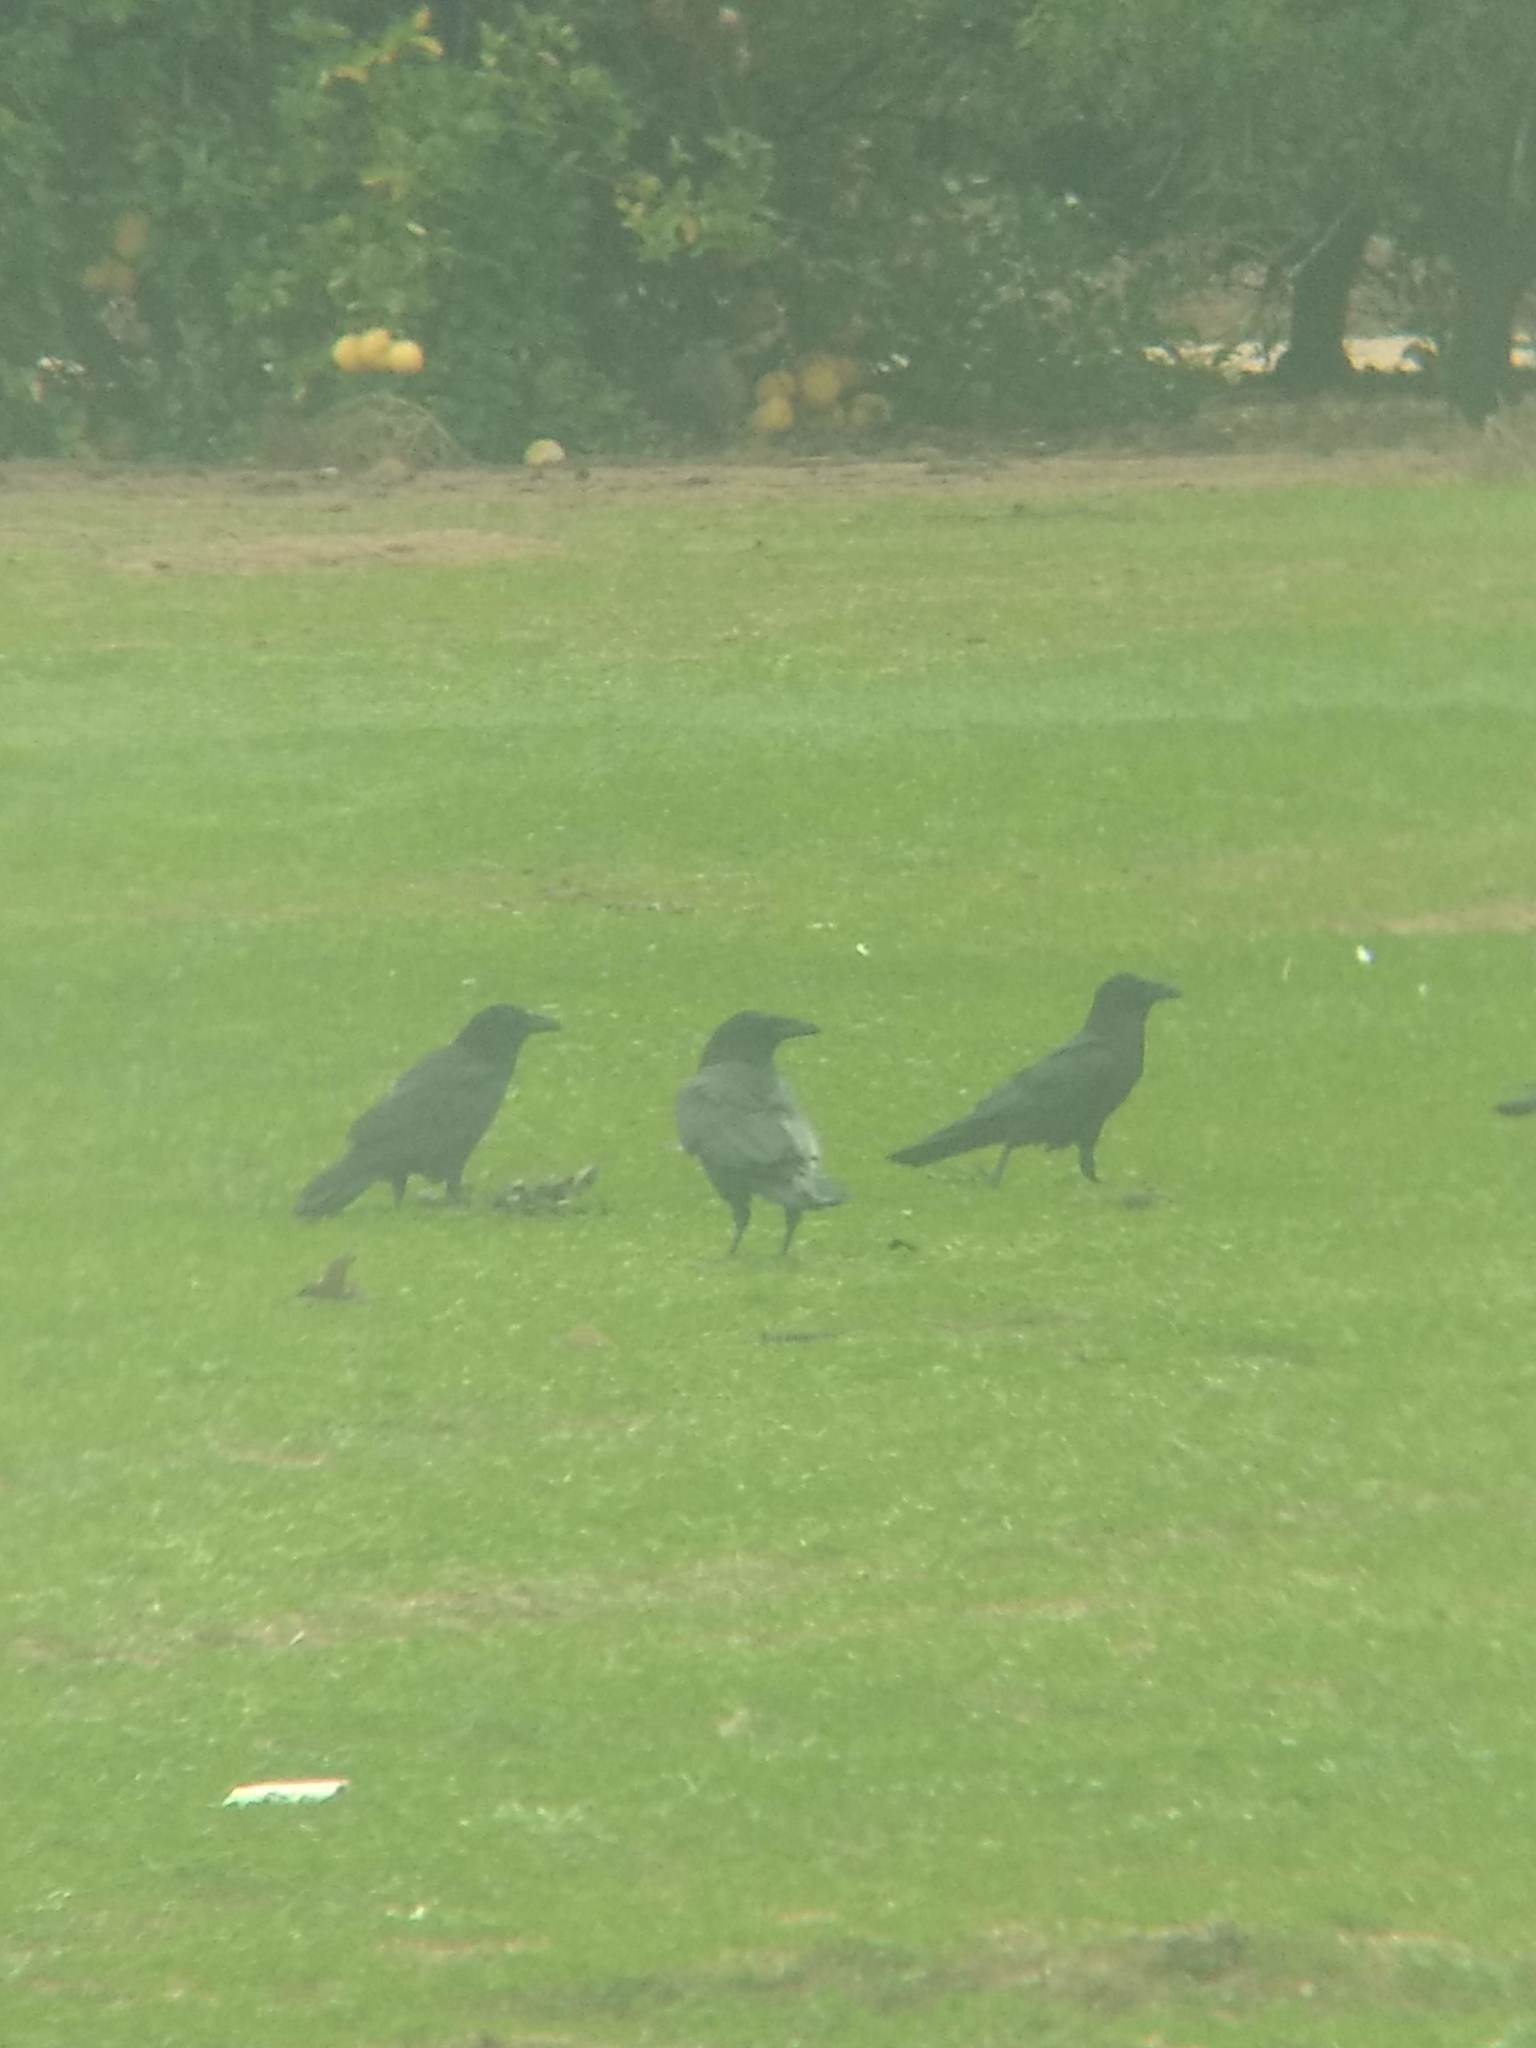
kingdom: Animalia
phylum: Chordata
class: Aves
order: Passeriformes
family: Corvidae
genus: Corvus
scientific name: Corvus corax
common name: Common raven
